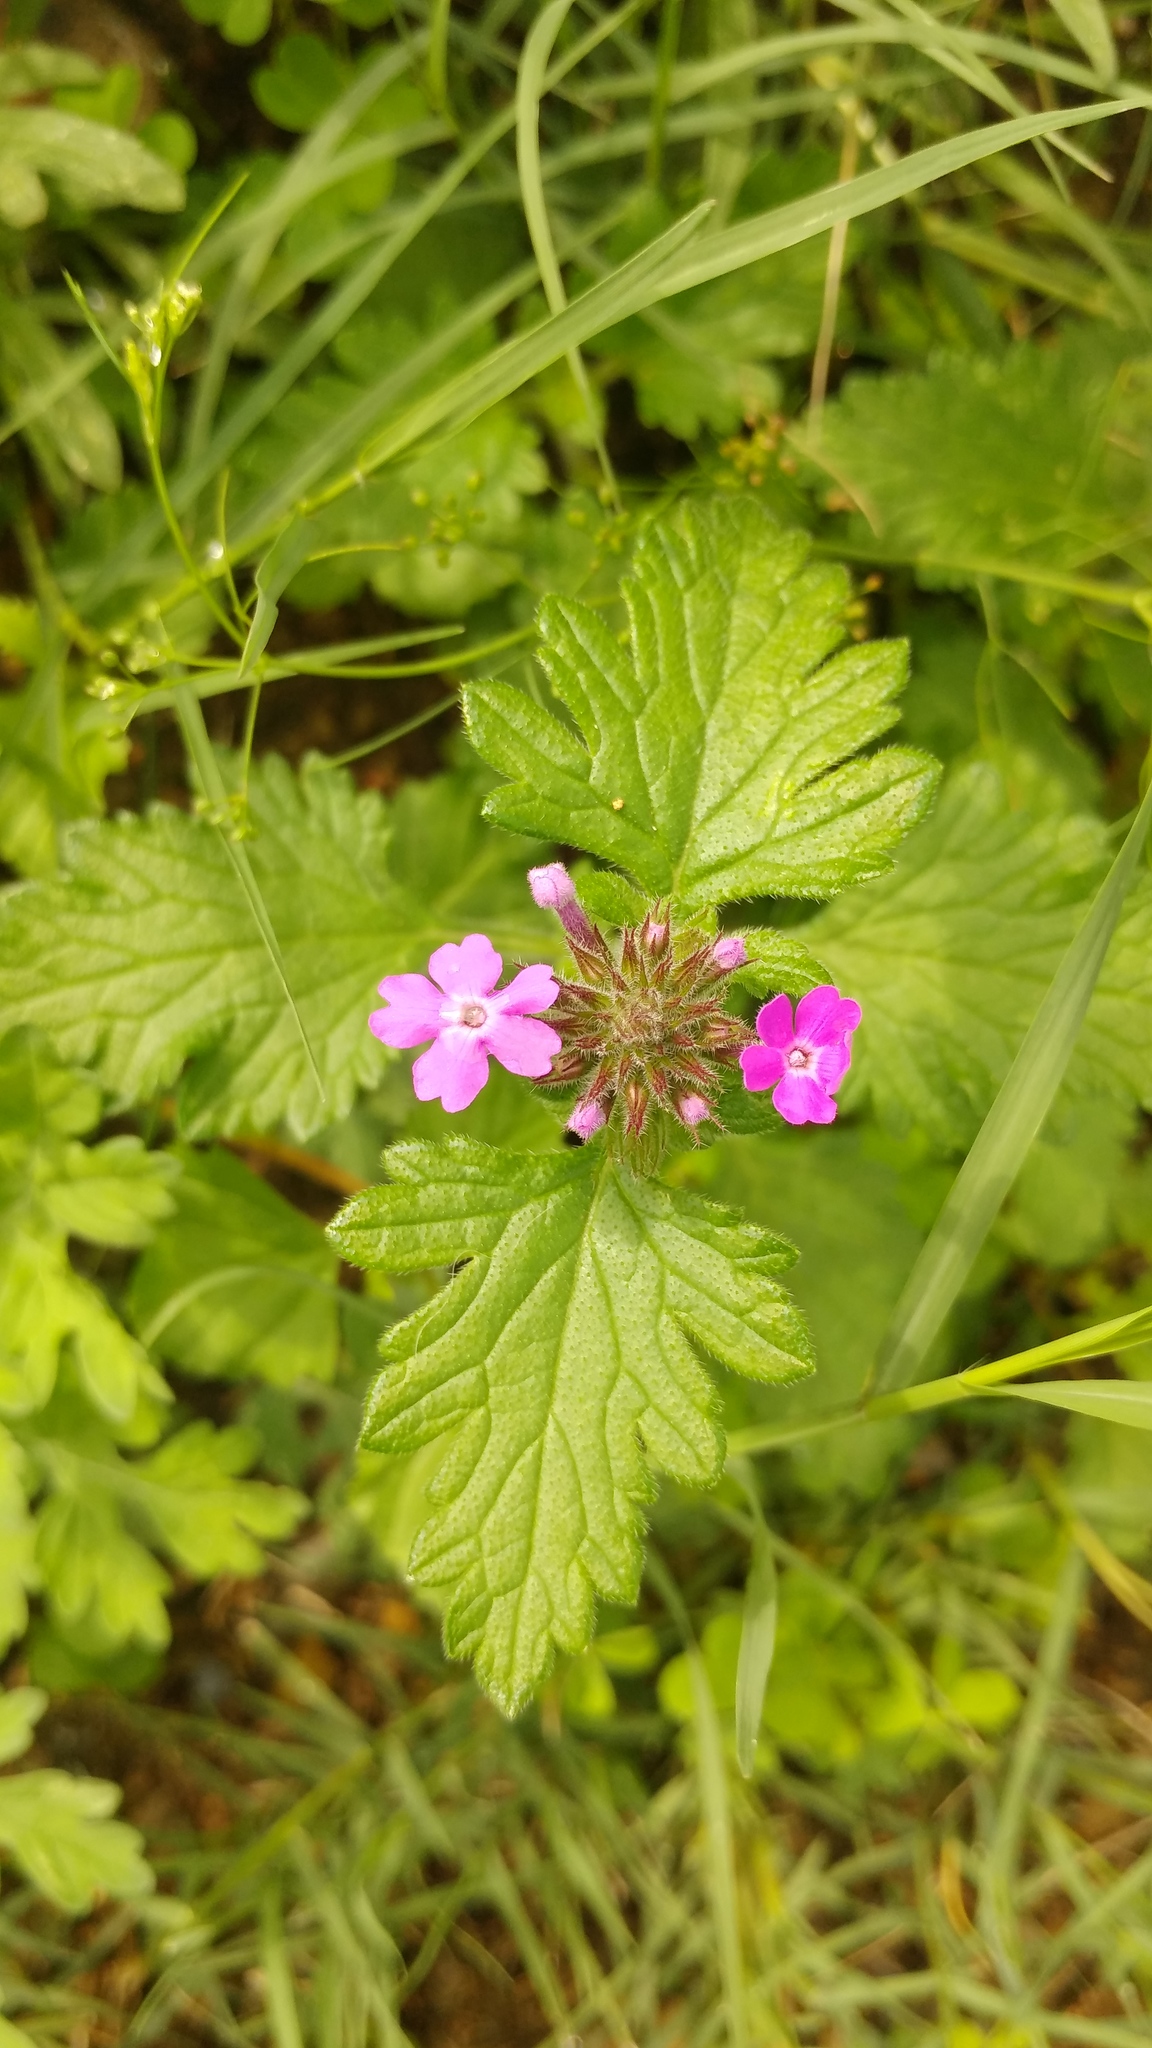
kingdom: Plantae
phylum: Tracheophyta
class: Magnoliopsida
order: Lamiales
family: Verbenaceae
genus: Verbena
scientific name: Verbena canadensis
